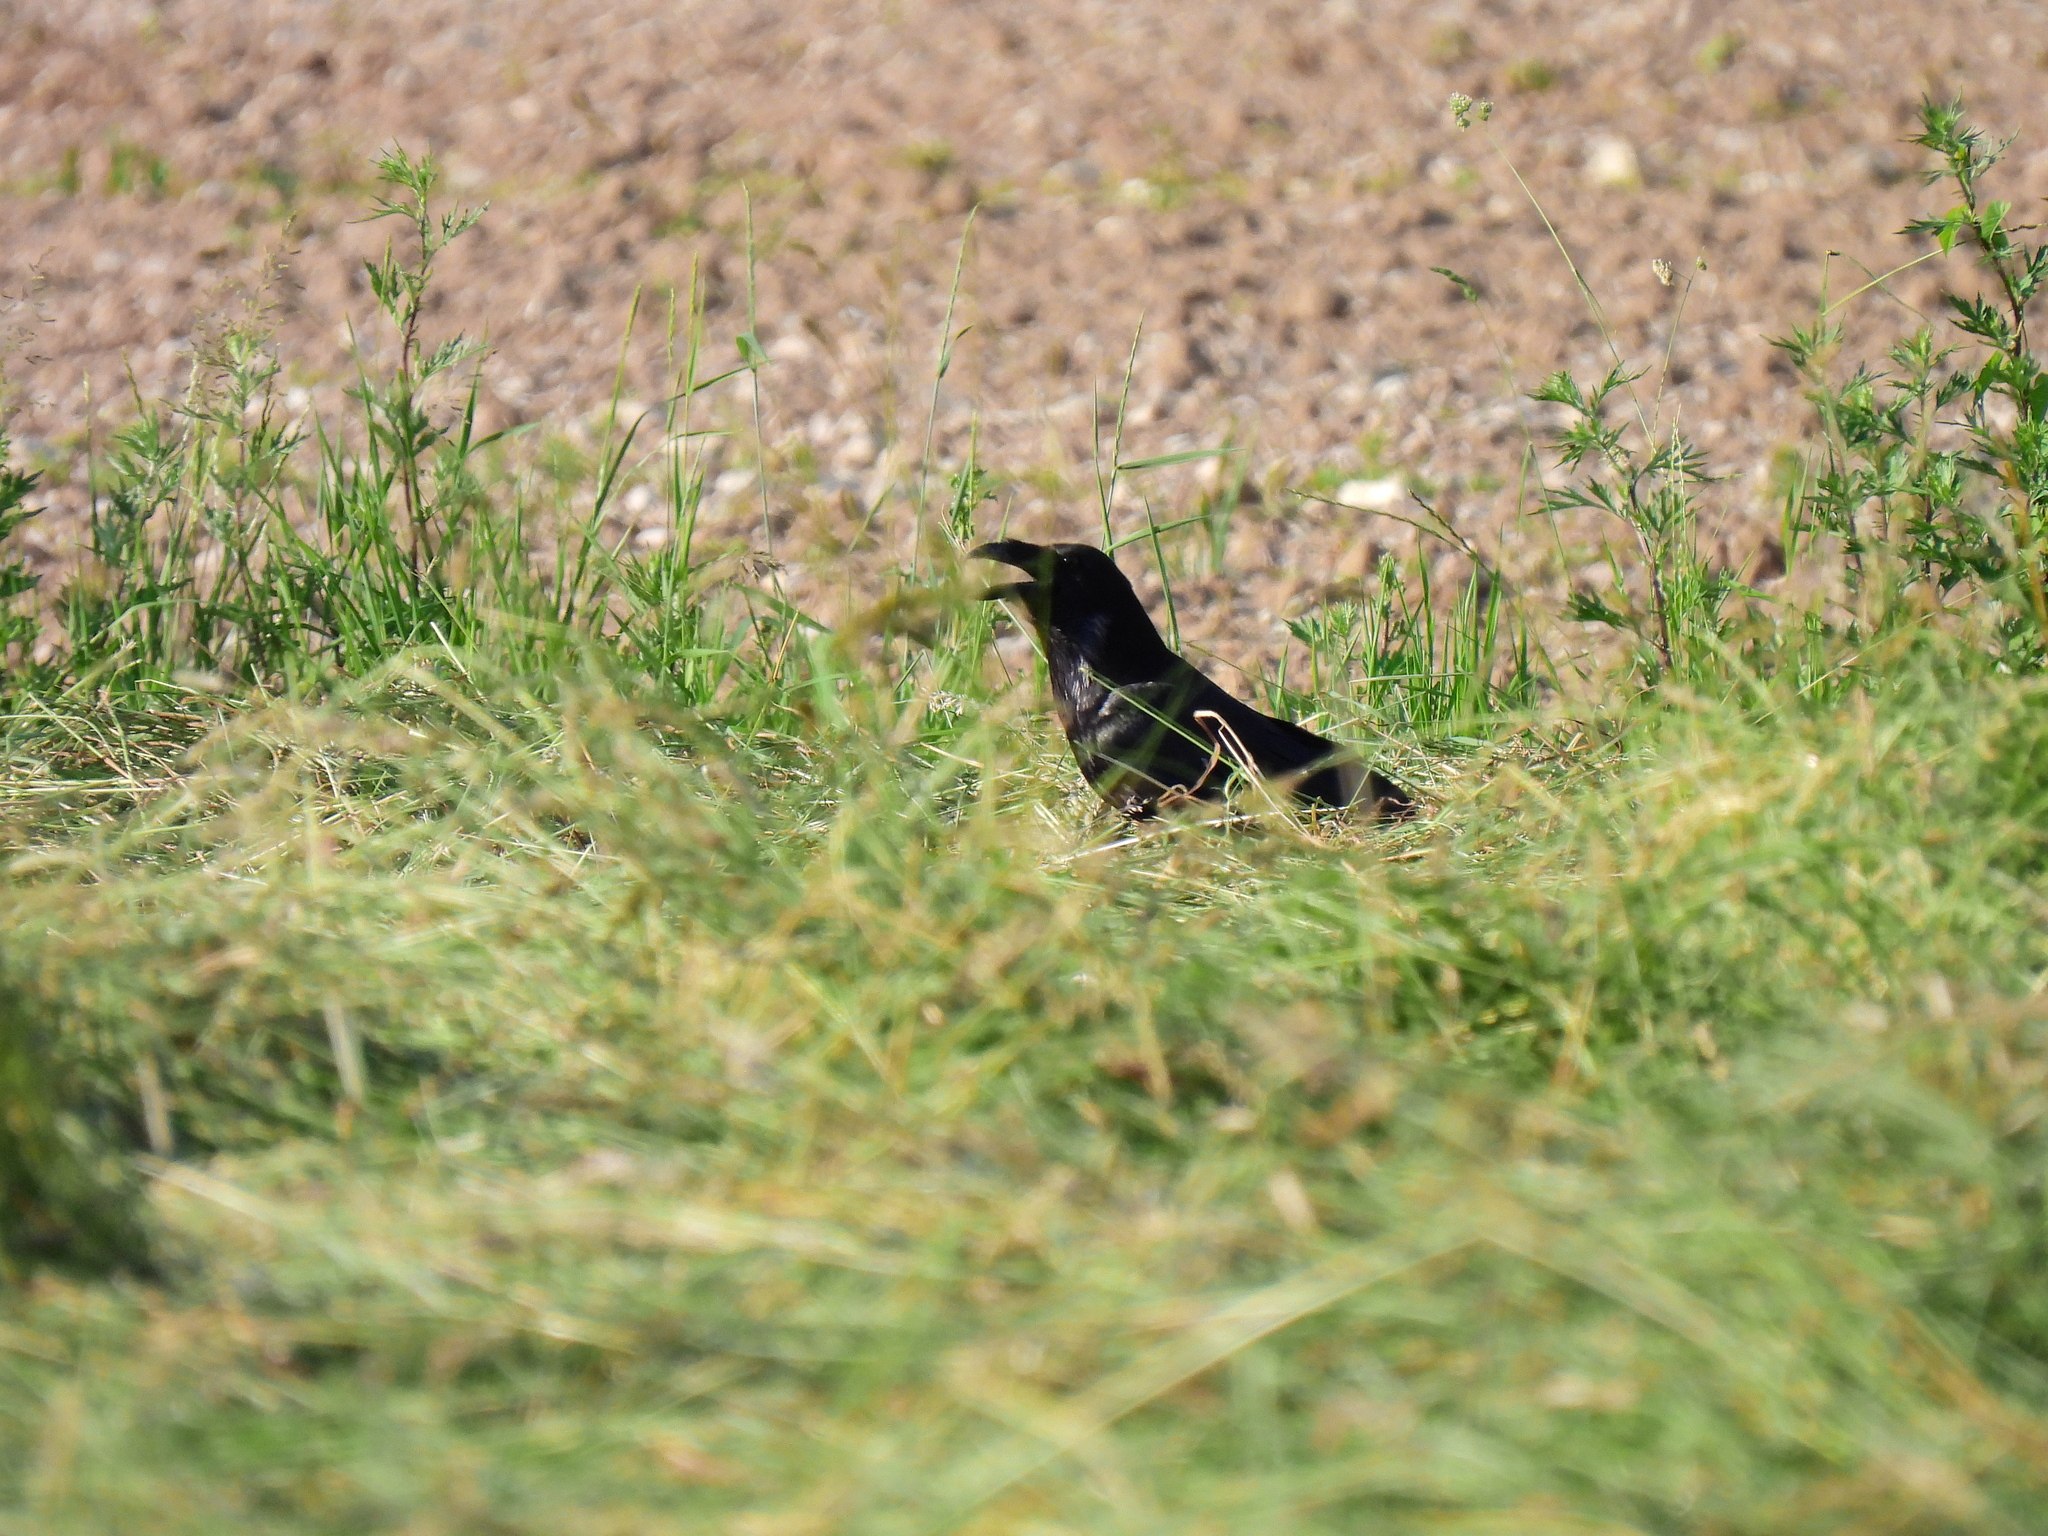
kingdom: Animalia
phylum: Chordata
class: Aves
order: Passeriformes
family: Corvidae
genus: Corvus
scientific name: Corvus corone
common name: Carrion crow
